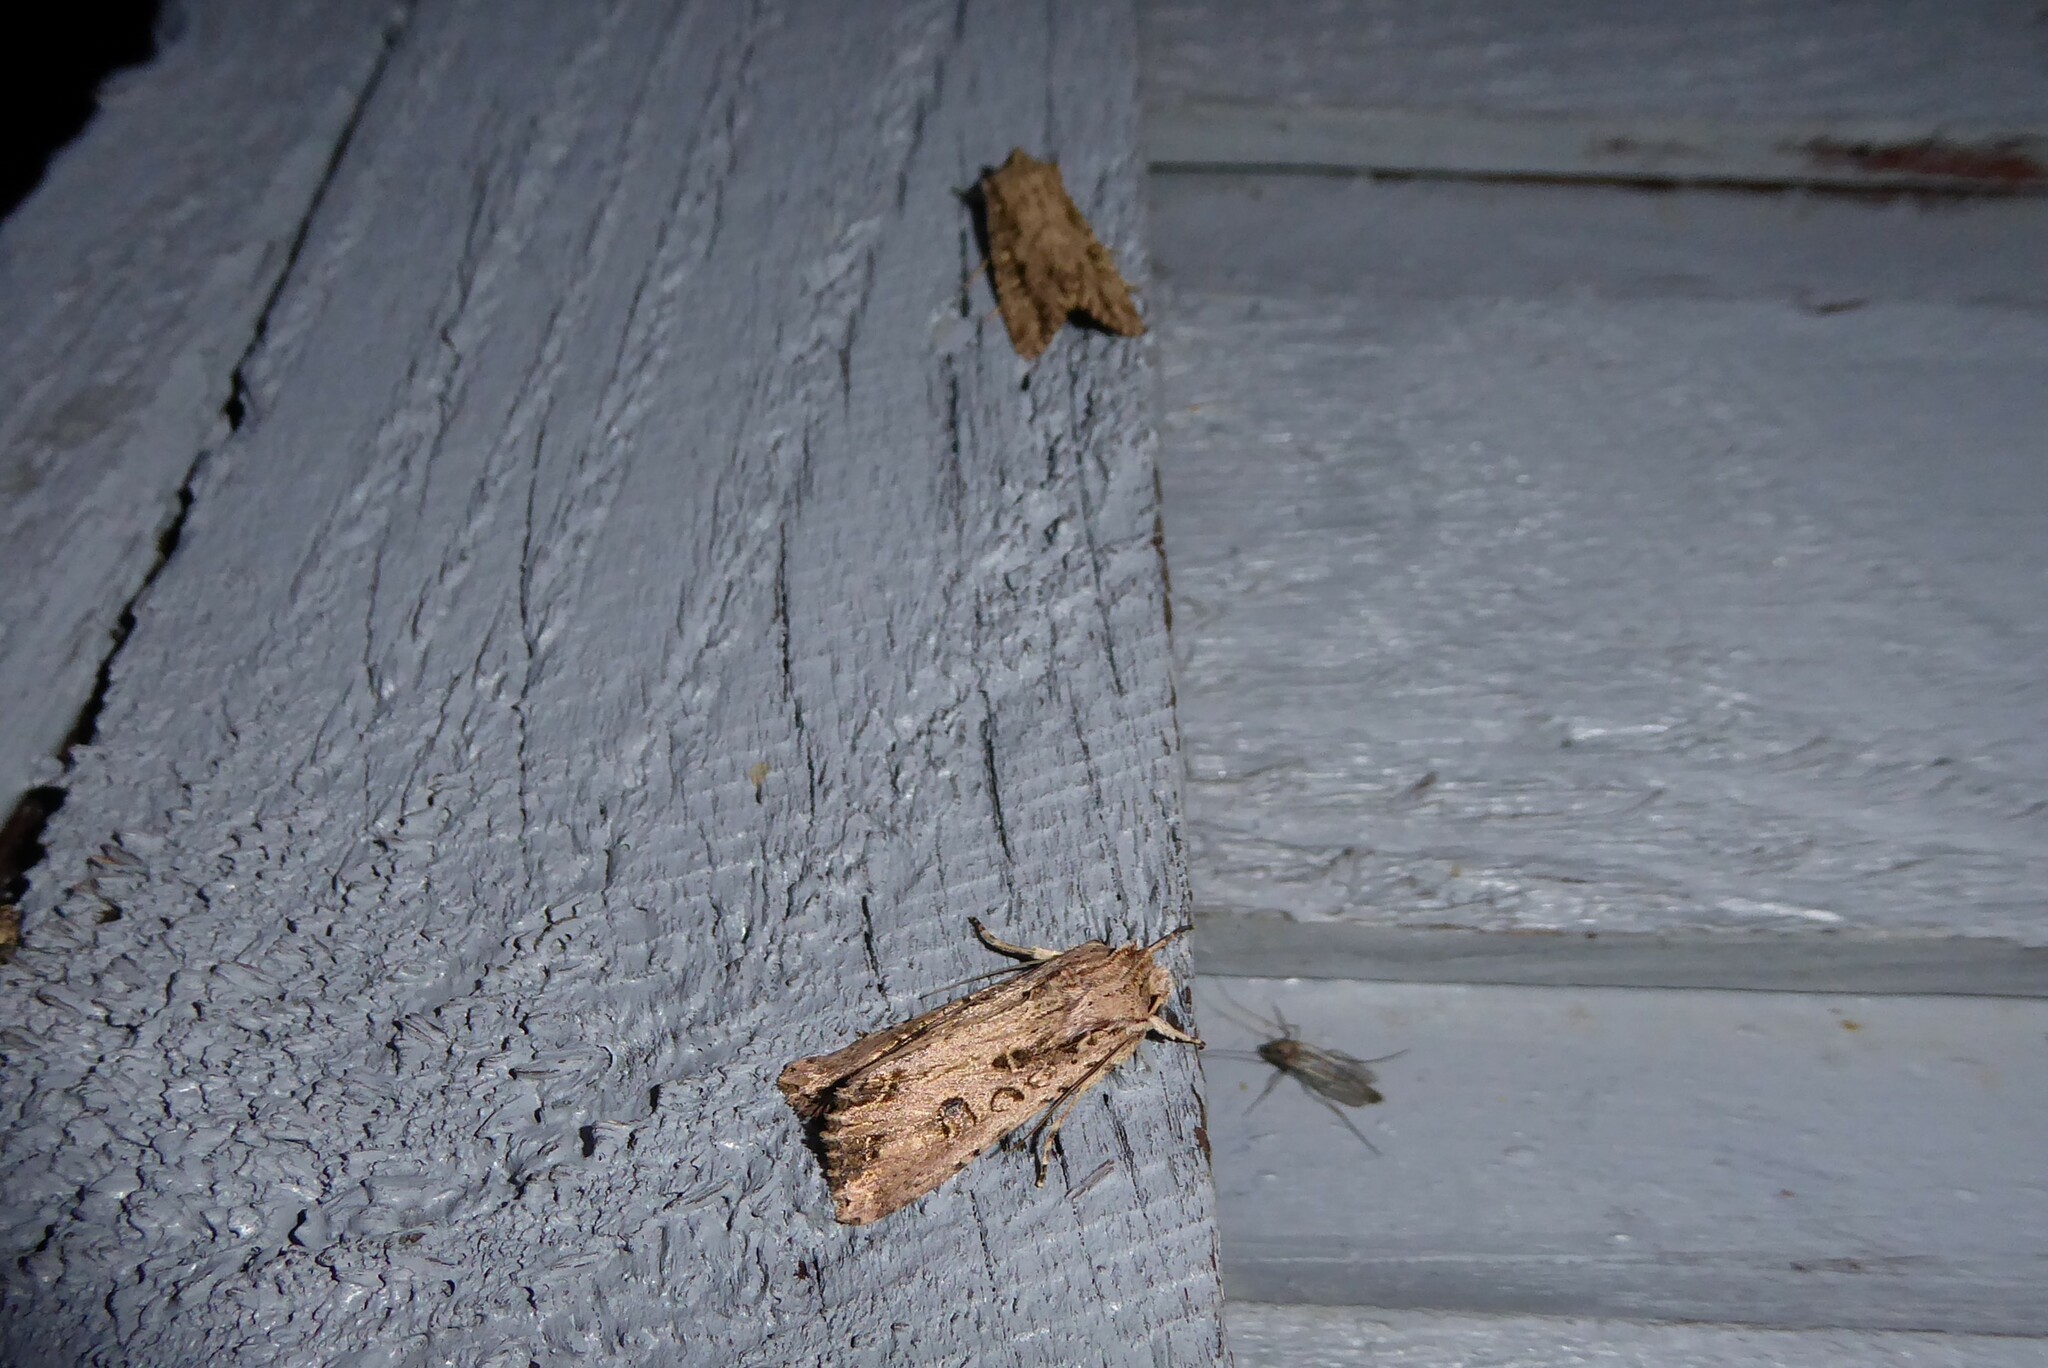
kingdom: Animalia
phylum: Arthropoda
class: Insecta
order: Lepidoptera
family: Noctuidae
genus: Ichneutica
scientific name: Ichneutica lignana
